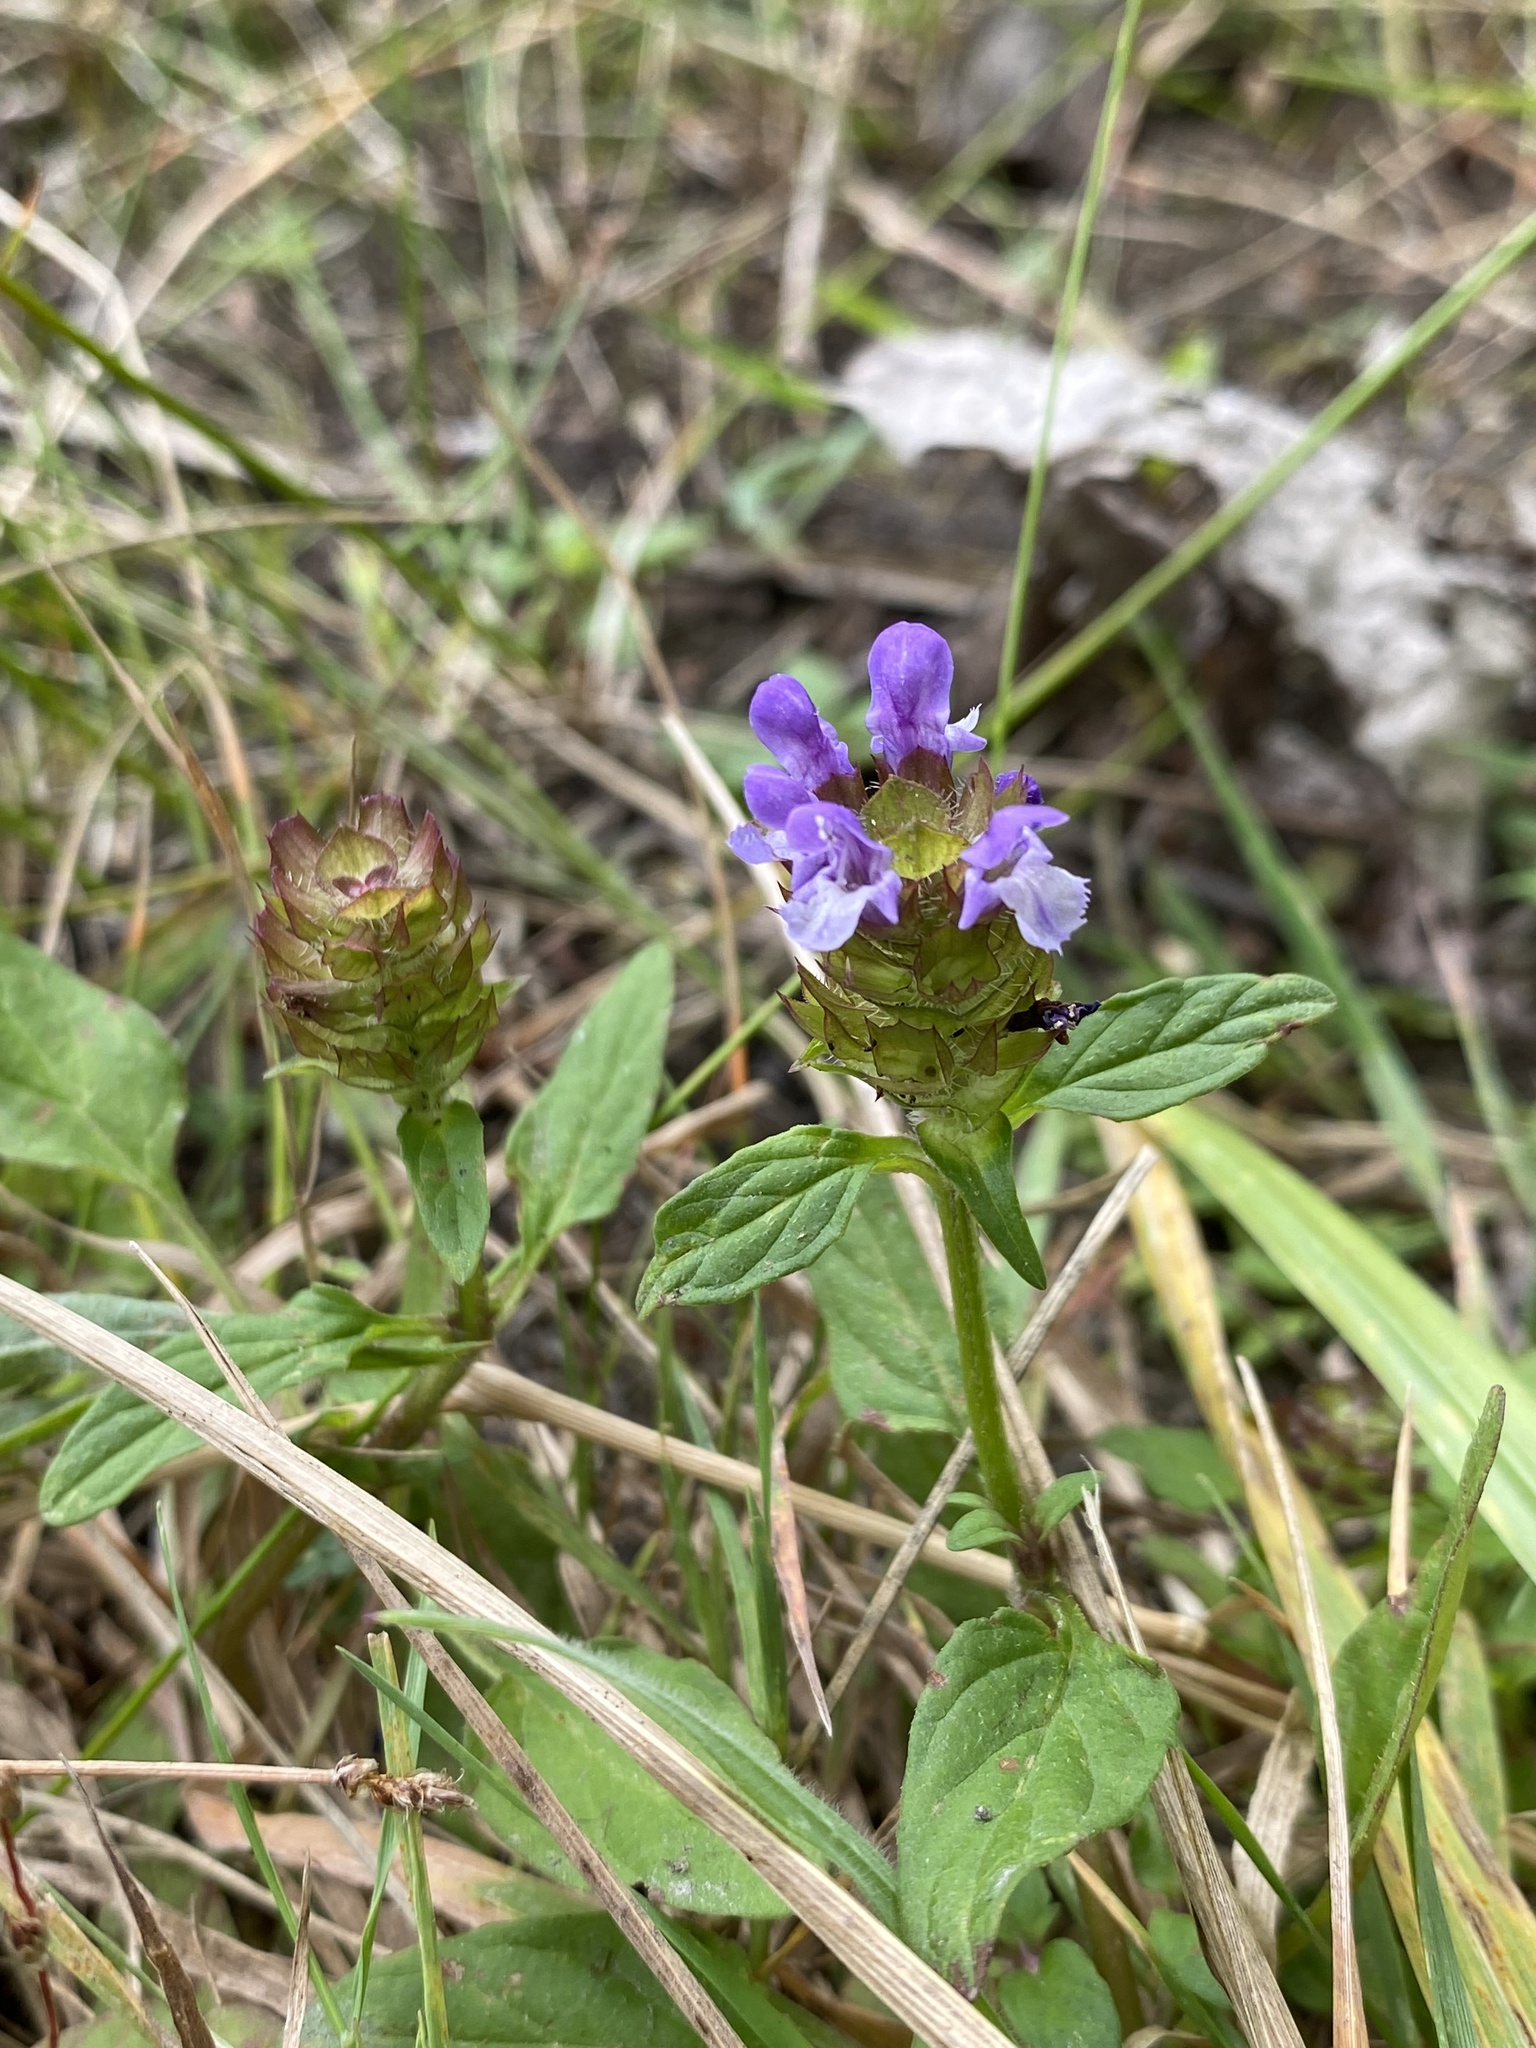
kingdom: Plantae
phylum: Tracheophyta
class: Magnoliopsida
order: Lamiales
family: Lamiaceae
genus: Prunella
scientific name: Prunella vulgaris
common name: Heal-all
